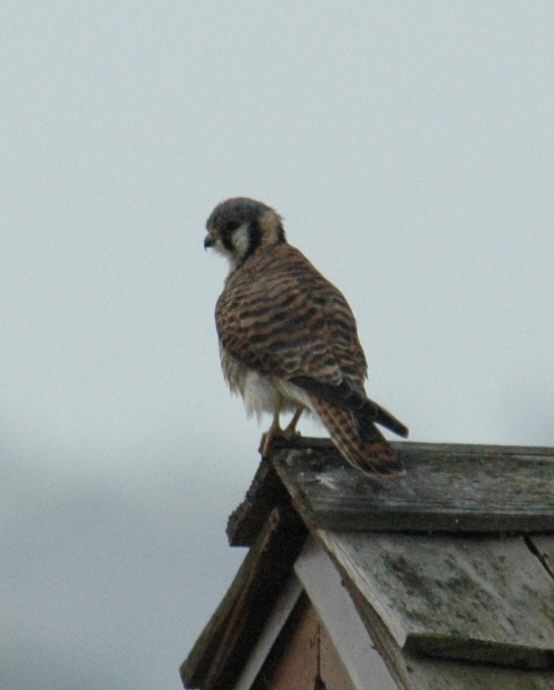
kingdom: Animalia
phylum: Chordata
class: Aves
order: Falconiformes
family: Falconidae
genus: Falco
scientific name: Falco sparverius
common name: American kestrel
